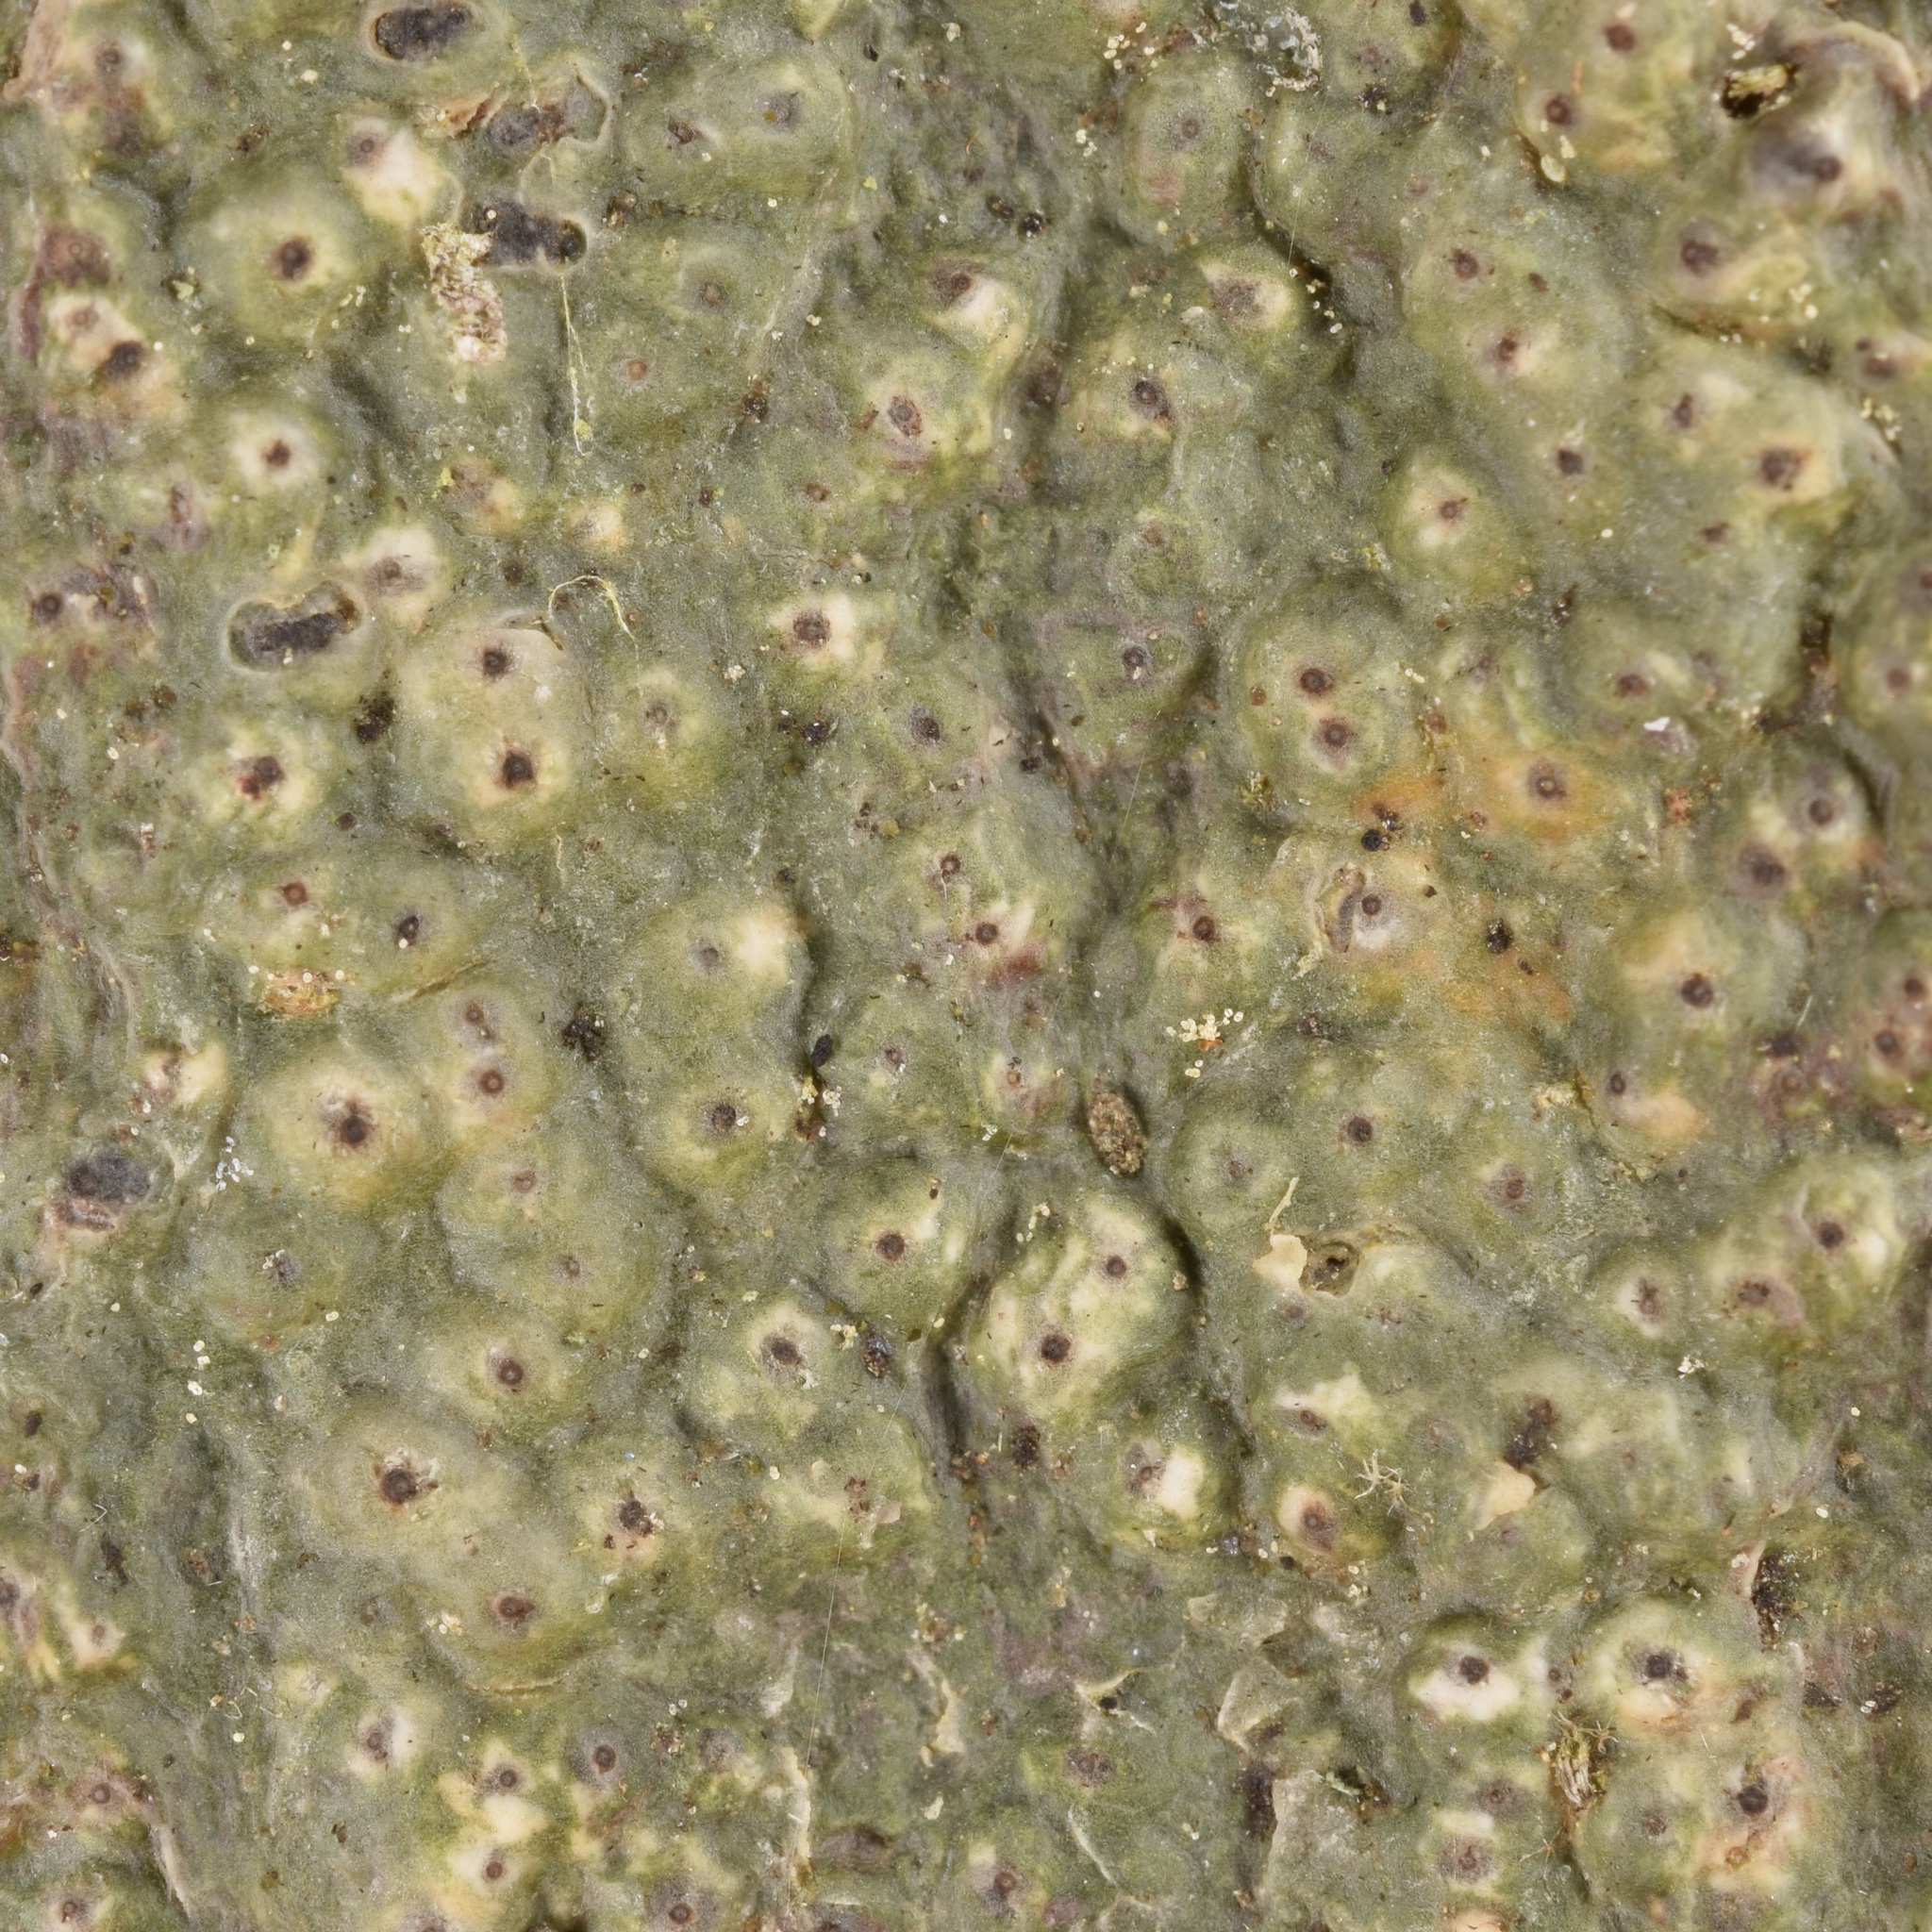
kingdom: Fungi
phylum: Ascomycota
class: Eurotiomycetes
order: Pyrenulales
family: Pyrenulaceae
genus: Pyrenula
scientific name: Pyrenula leucostoma
